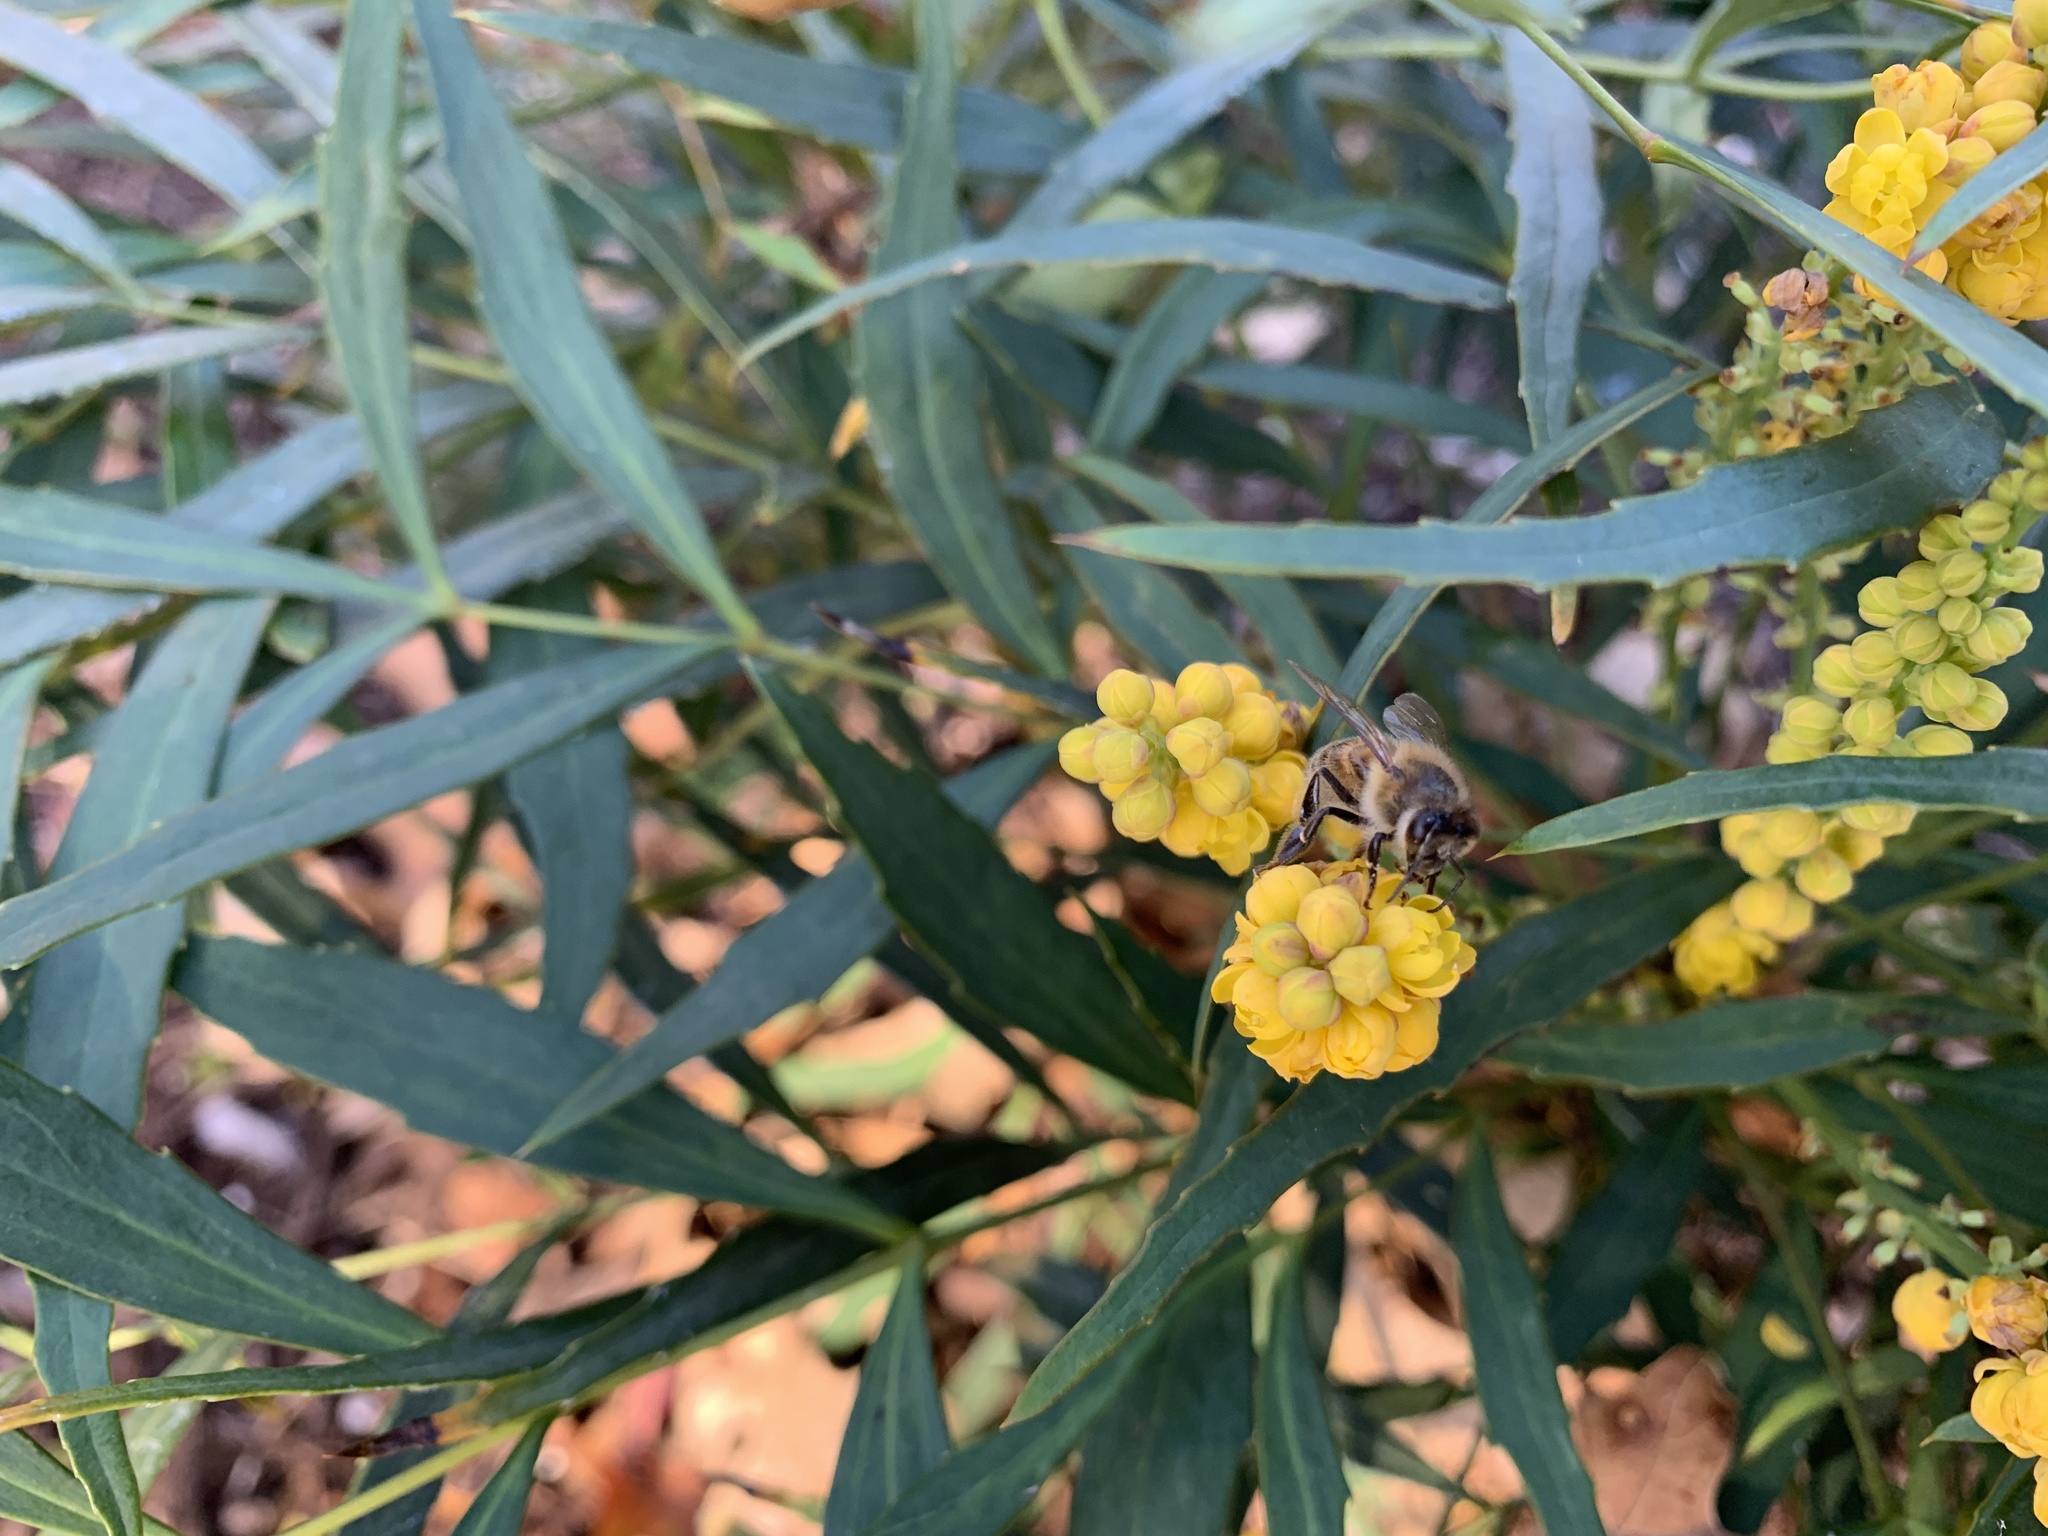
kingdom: Animalia
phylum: Arthropoda
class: Insecta
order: Hymenoptera
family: Apidae
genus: Apis
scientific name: Apis mellifera
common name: Honey bee
